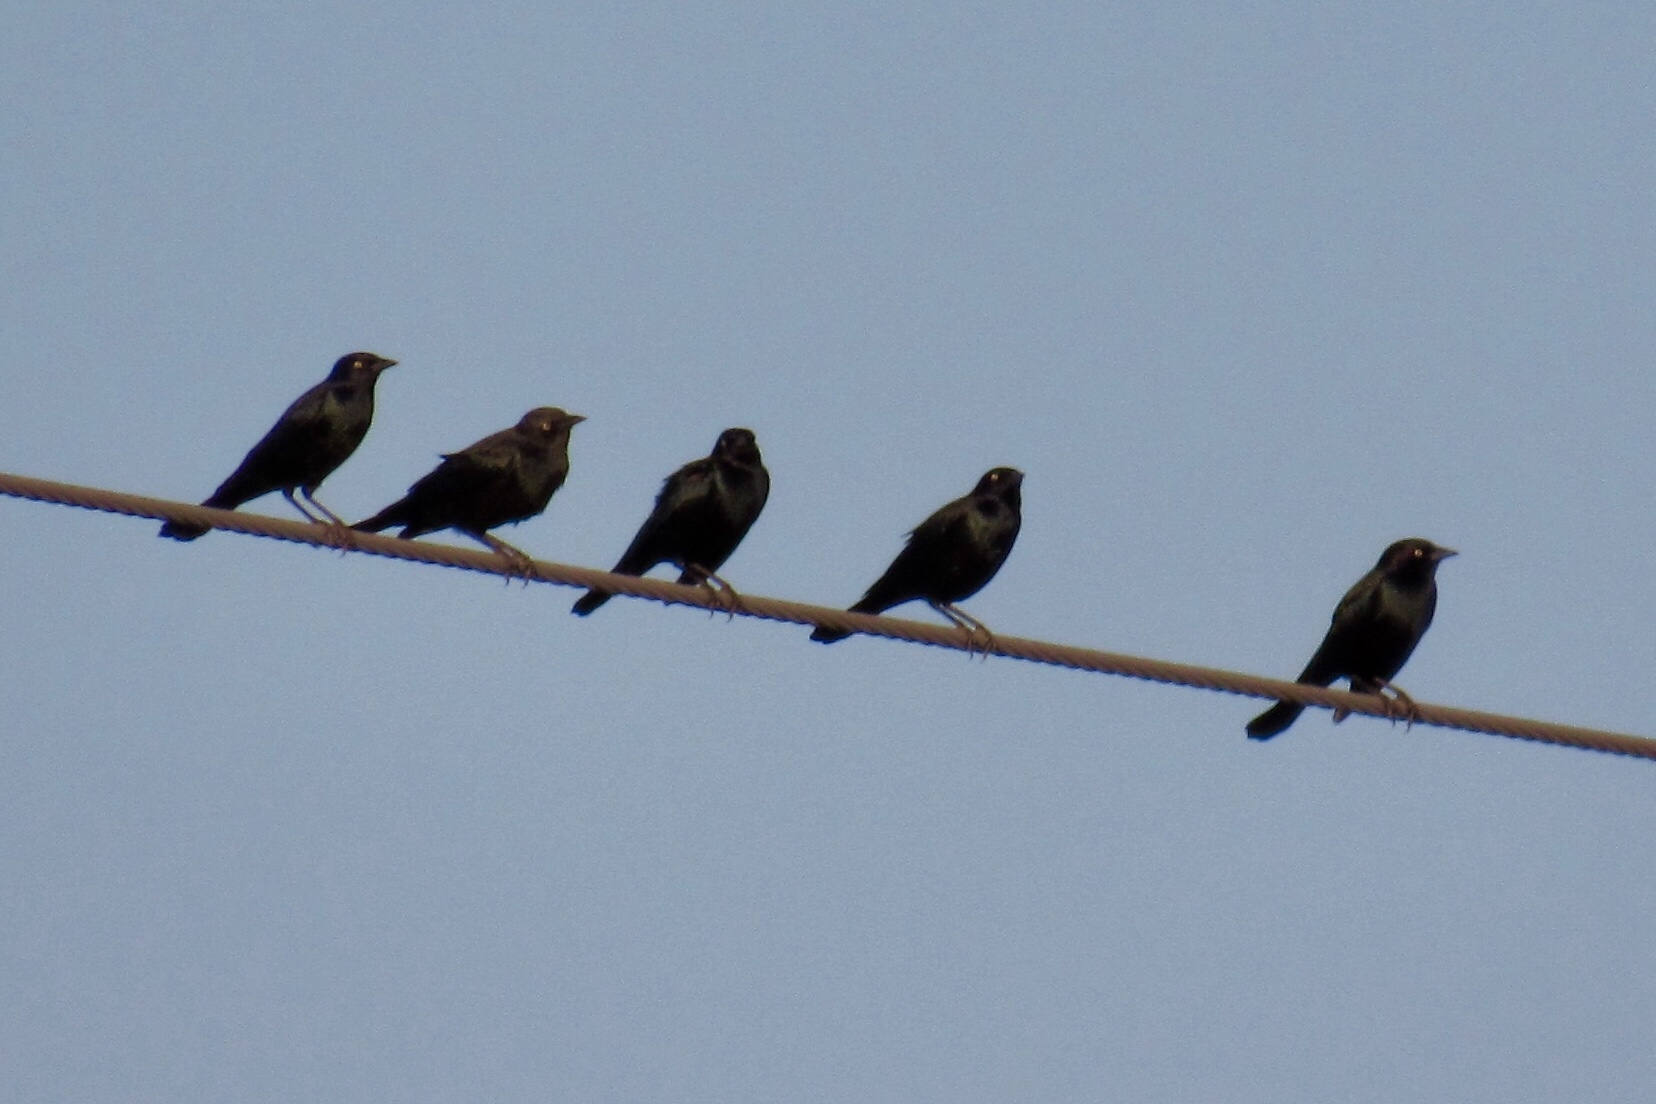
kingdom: Animalia
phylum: Chordata
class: Aves
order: Passeriformes
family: Icteridae
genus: Euphagus
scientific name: Euphagus cyanocephalus
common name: Brewer's blackbird
